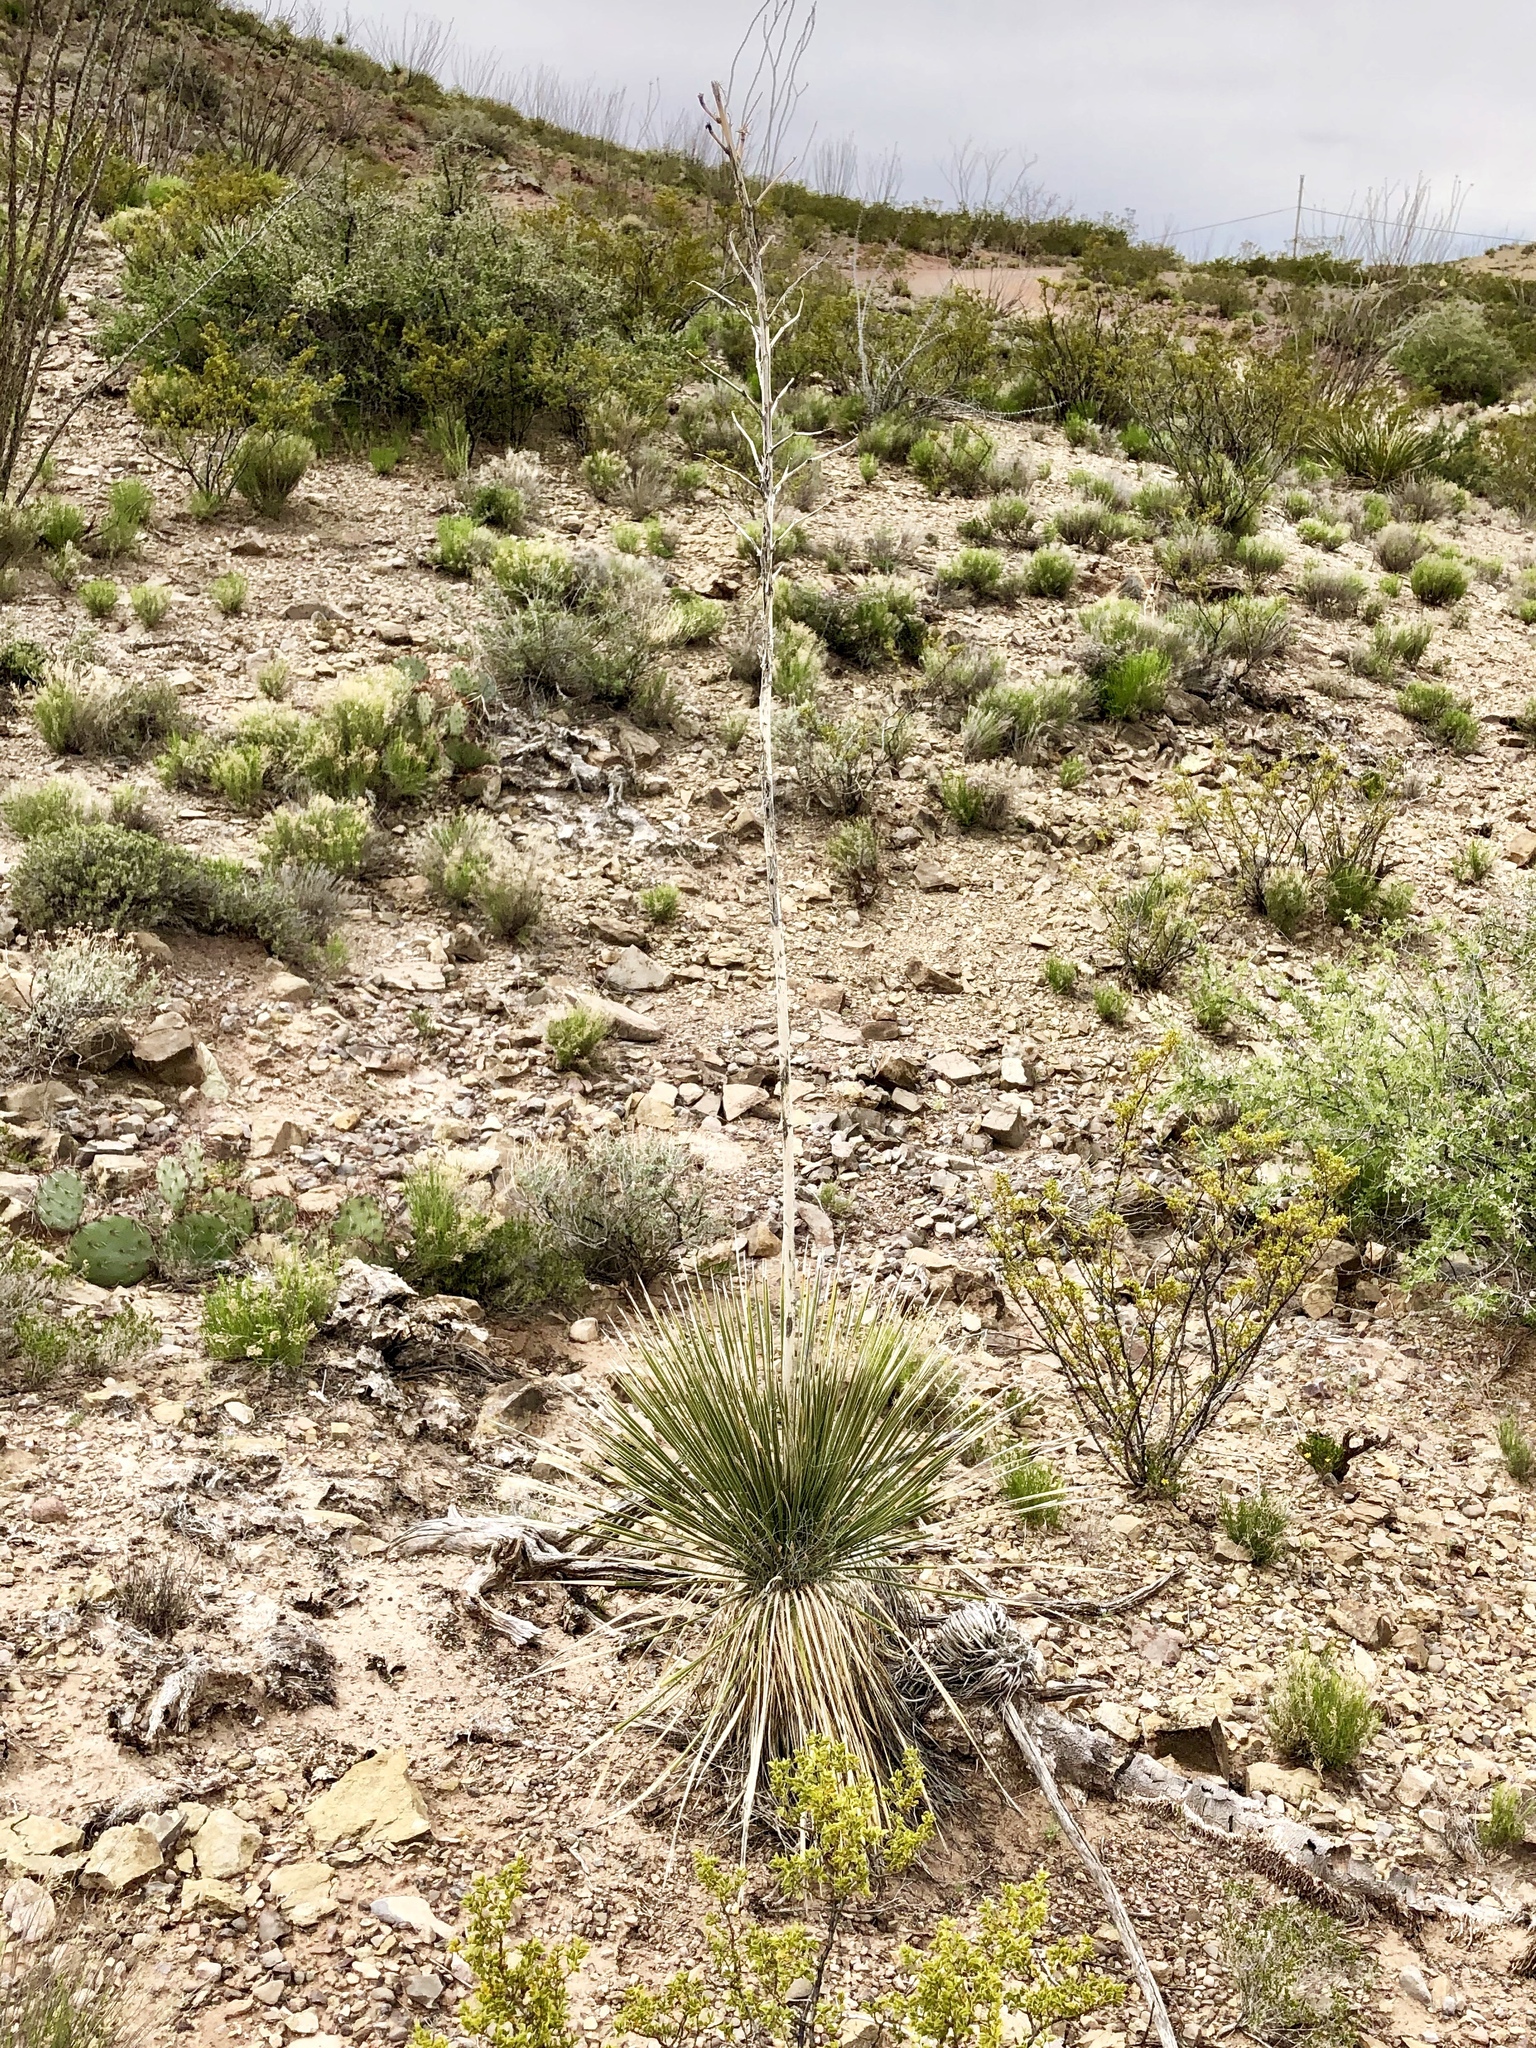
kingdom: Plantae
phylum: Tracheophyta
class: Liliopsida
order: Asparagales
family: Asparagaceae
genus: Yucca
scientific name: Yucca elata
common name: Palmella
